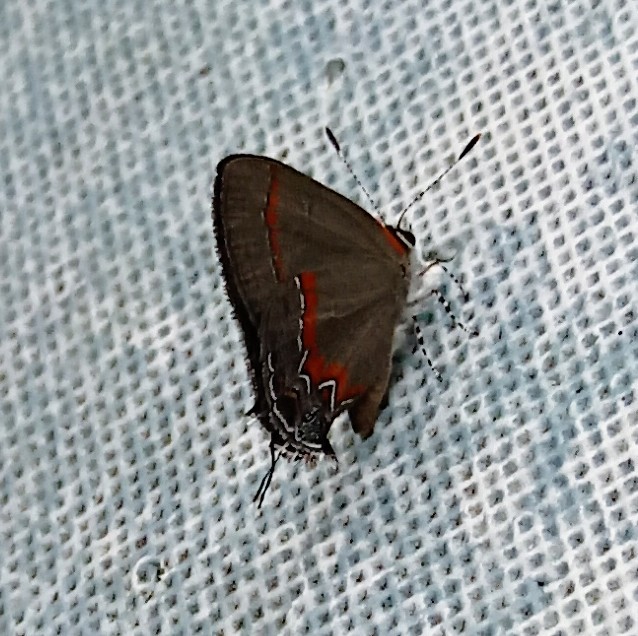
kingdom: Animalia
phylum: Arthropoda
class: Insecta
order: Lepidoptera
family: Lycaenidae
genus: Calycopis
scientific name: Calycopis cecrops
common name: Red-banded hairstreak
